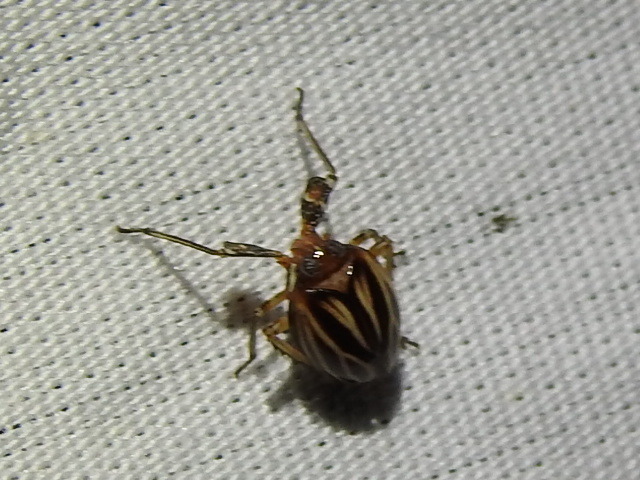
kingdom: Animalia
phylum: Arthropoda
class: Insecta
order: Hemiptera
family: Achilidae
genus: Isodaemon
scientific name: Isodaemon orontes
